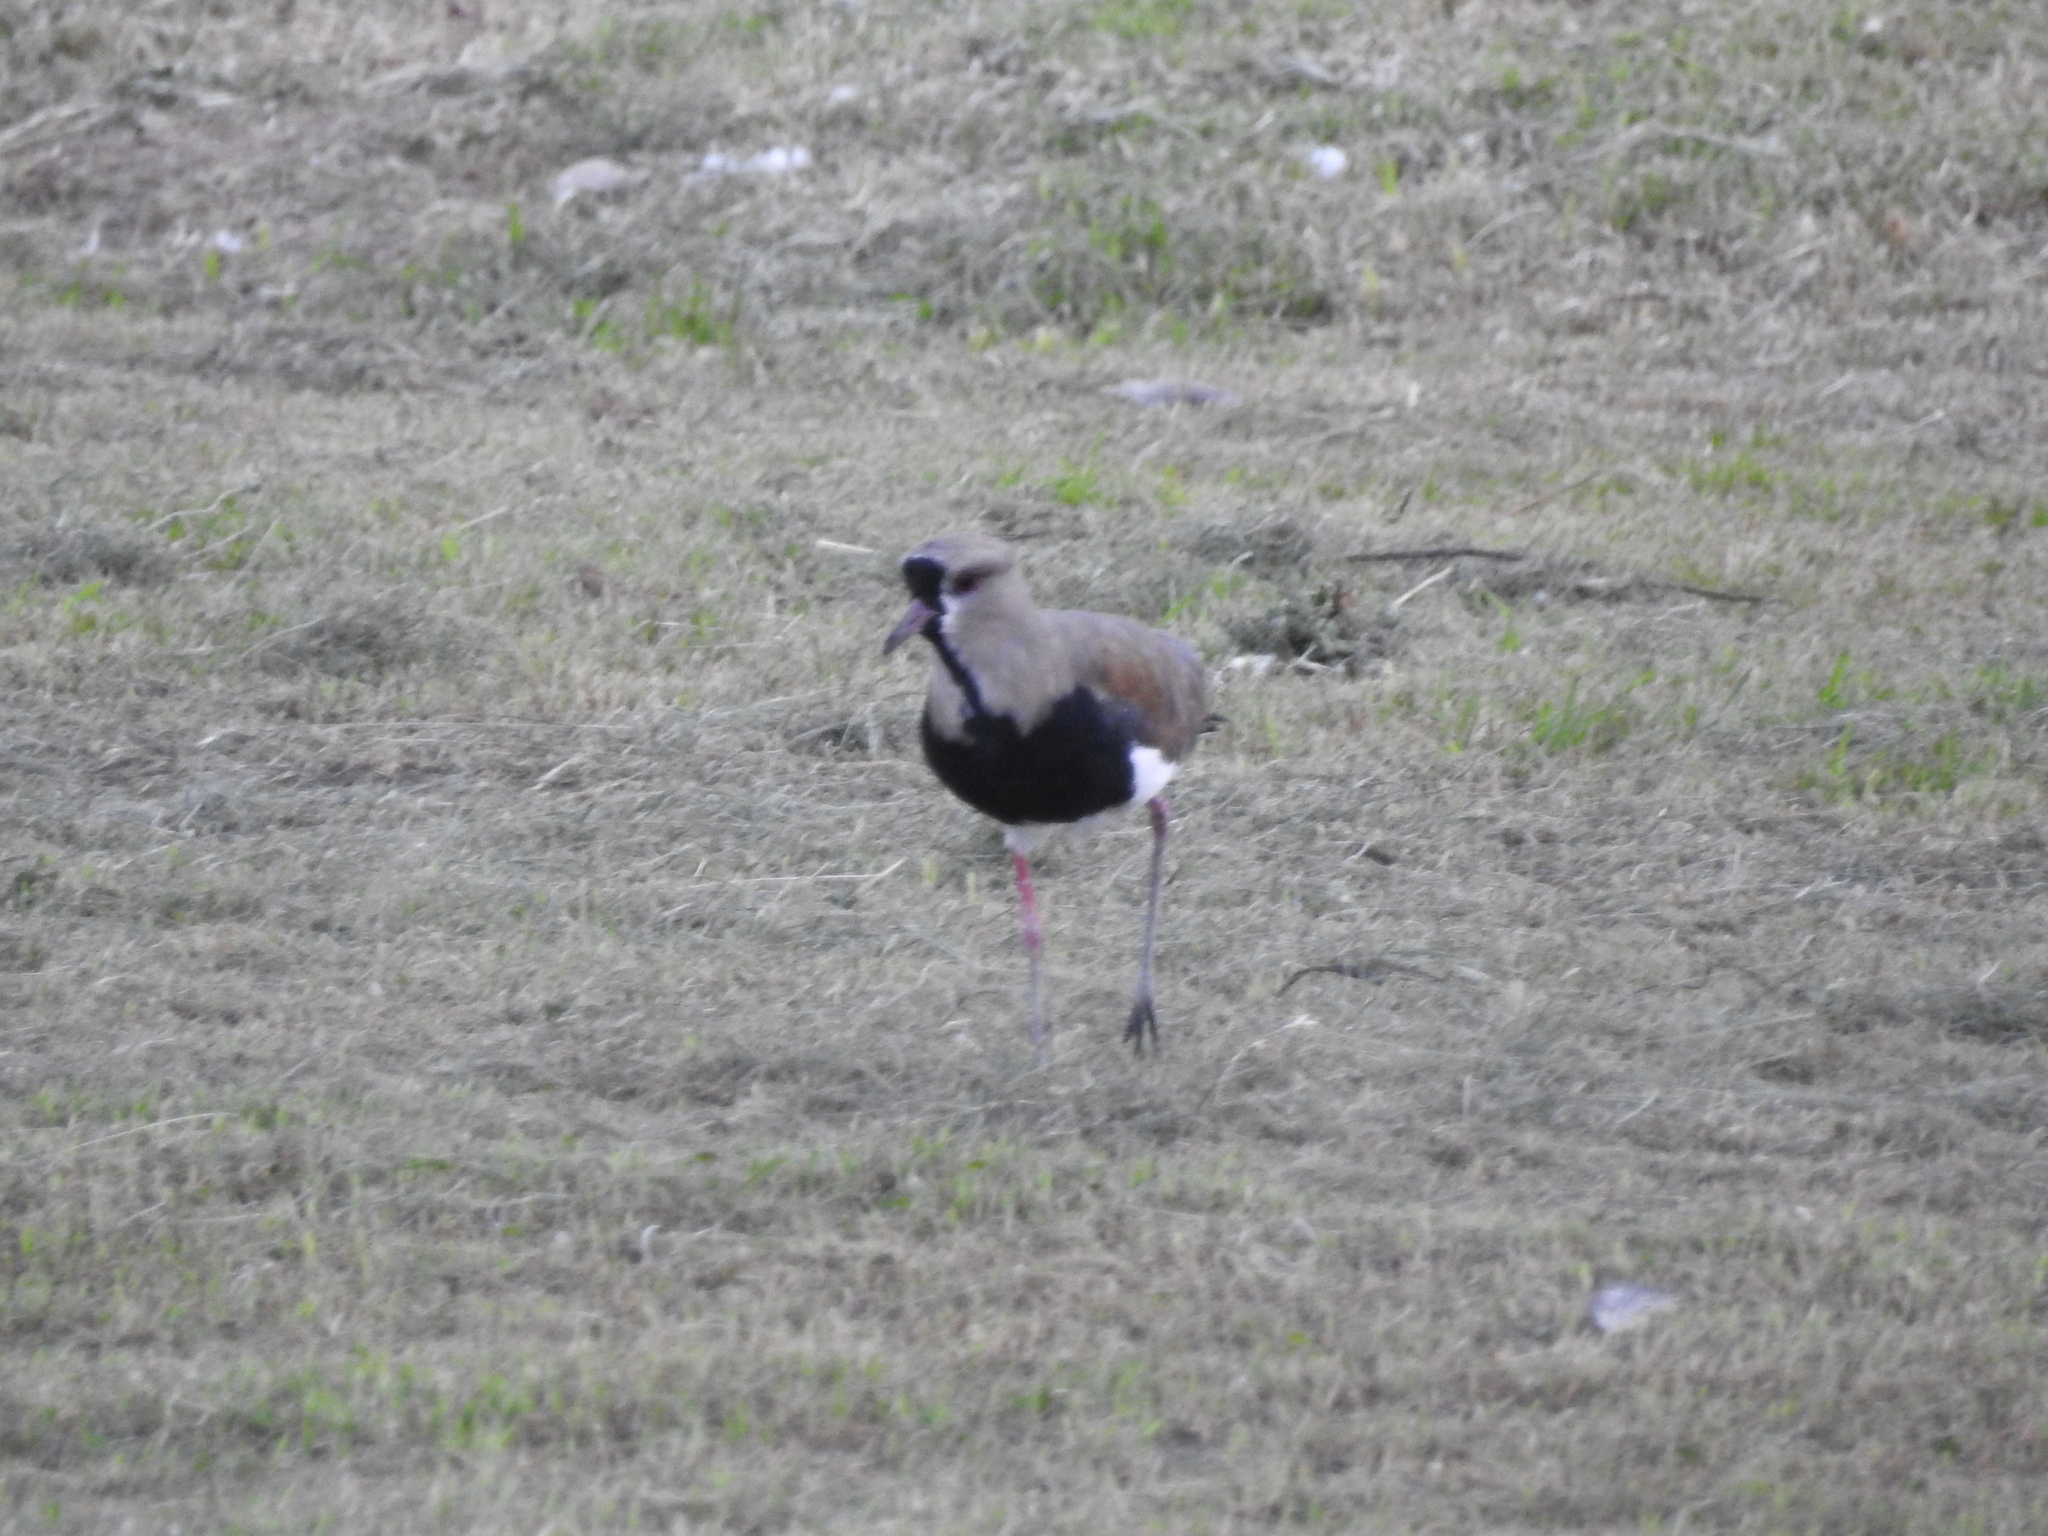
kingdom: Animalia
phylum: Chordata
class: Aves
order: Charadriiformes
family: Charadriidae
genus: Vanellus
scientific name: Vanellus chilensis
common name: Southern lapwing
